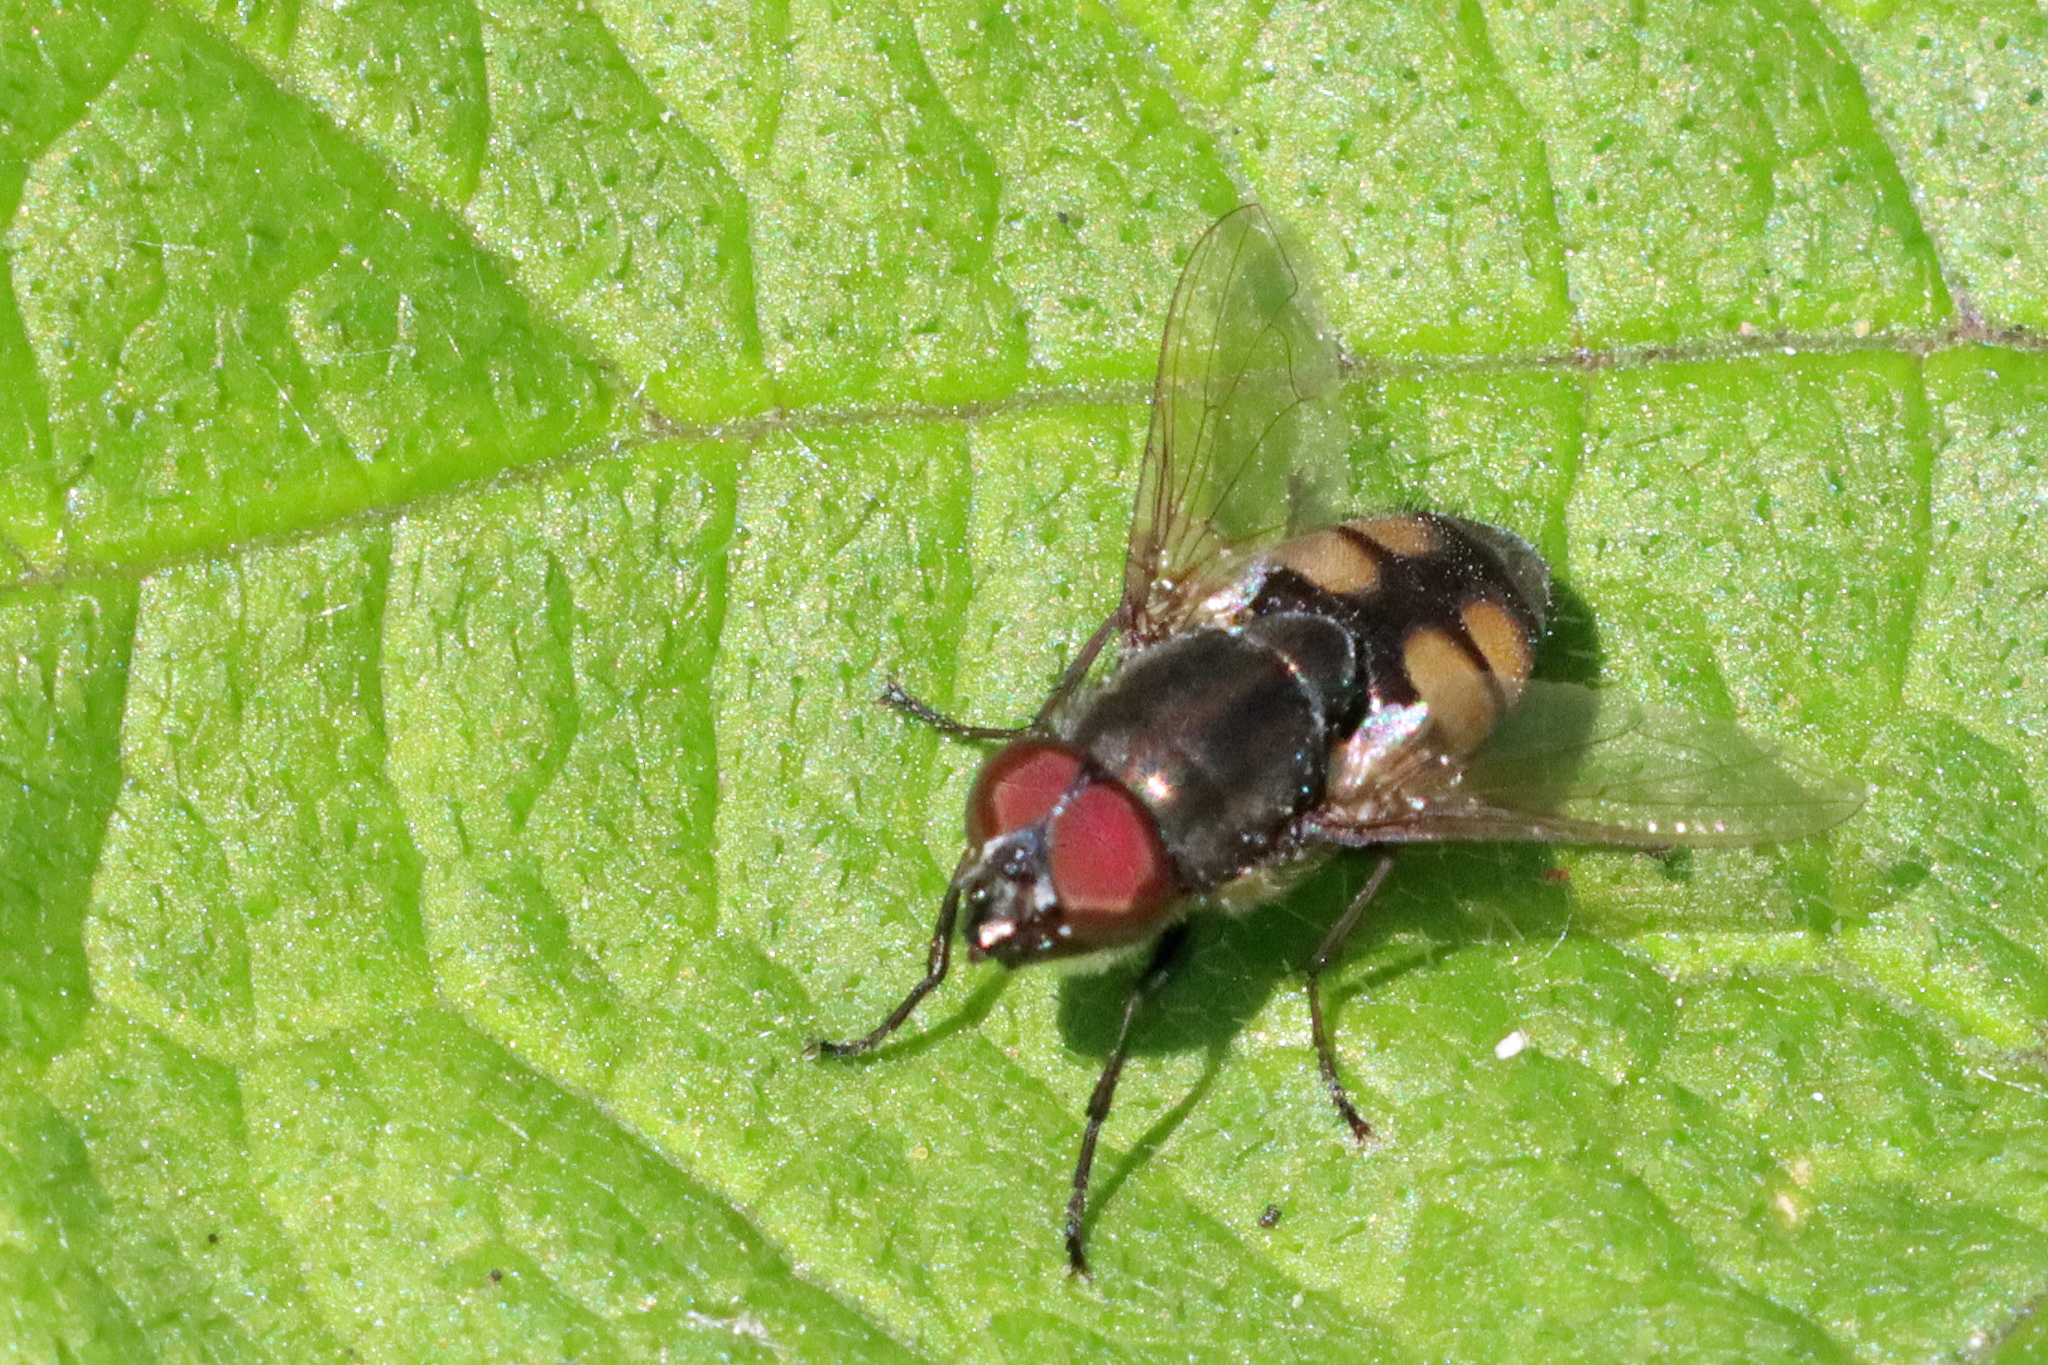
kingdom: Animalia
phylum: Arthropoda
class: Insecta
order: Diptera
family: Calliphoridae
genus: Stomorhina
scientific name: Stomorhina lunata
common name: Locust blowfly
